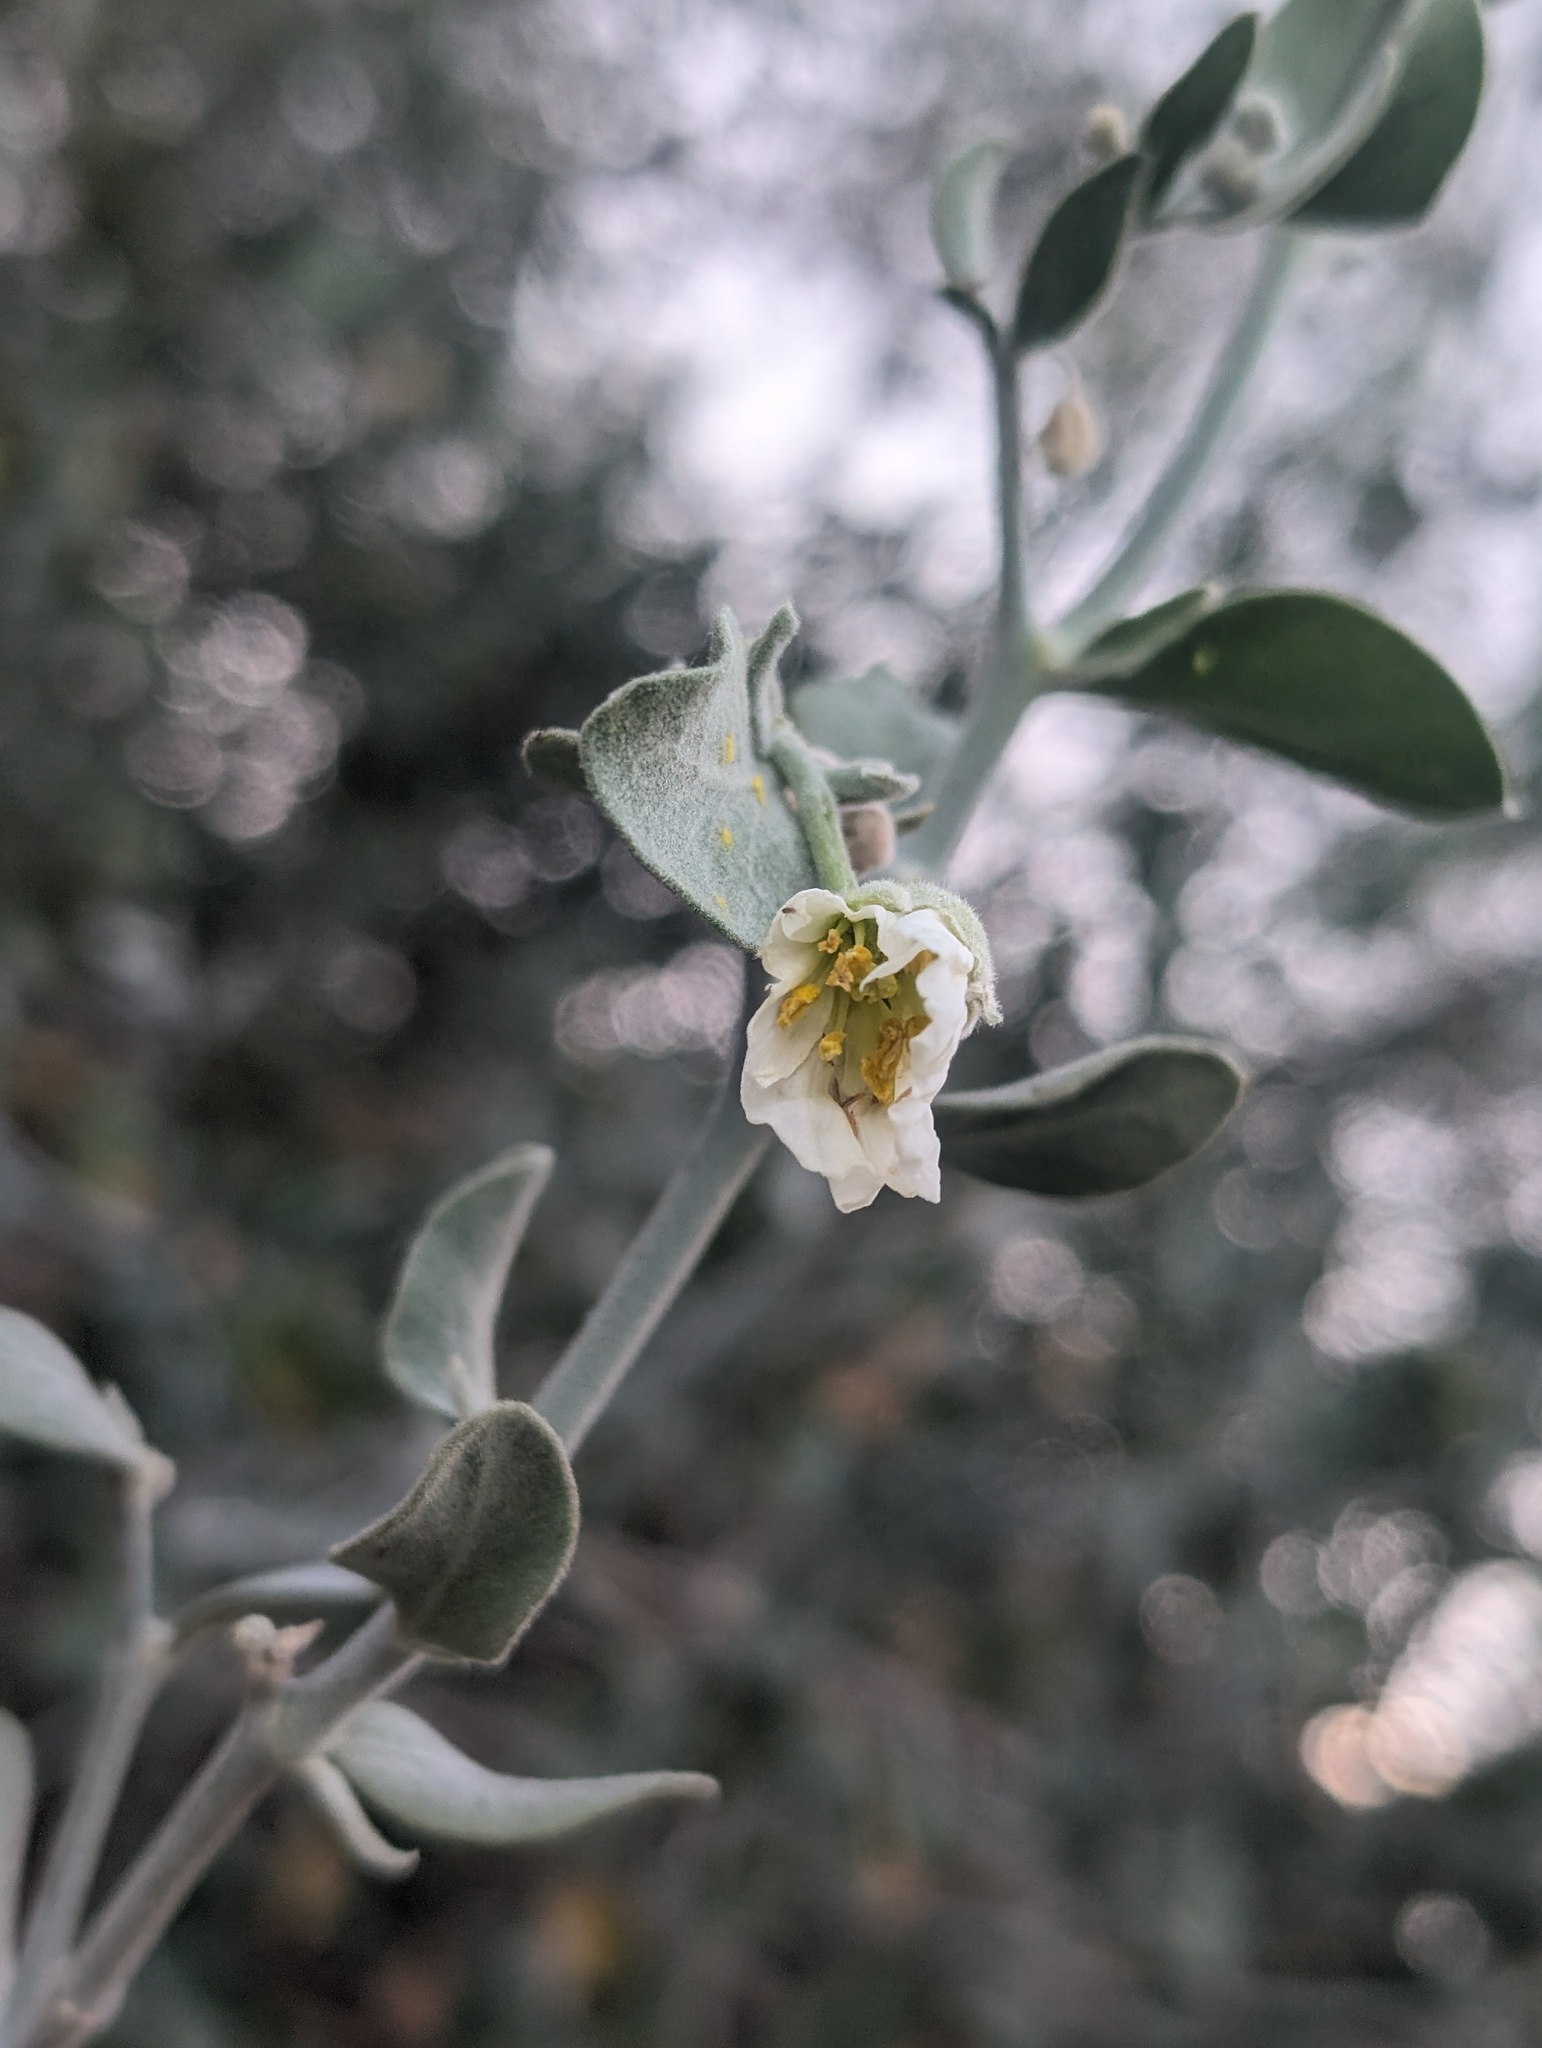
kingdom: Plantae
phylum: Tracheophyta
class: Magnoliopsida
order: Zygophyllales
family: Zygophyllaceae
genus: Viscainoa
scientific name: Viscainoa geniculata
